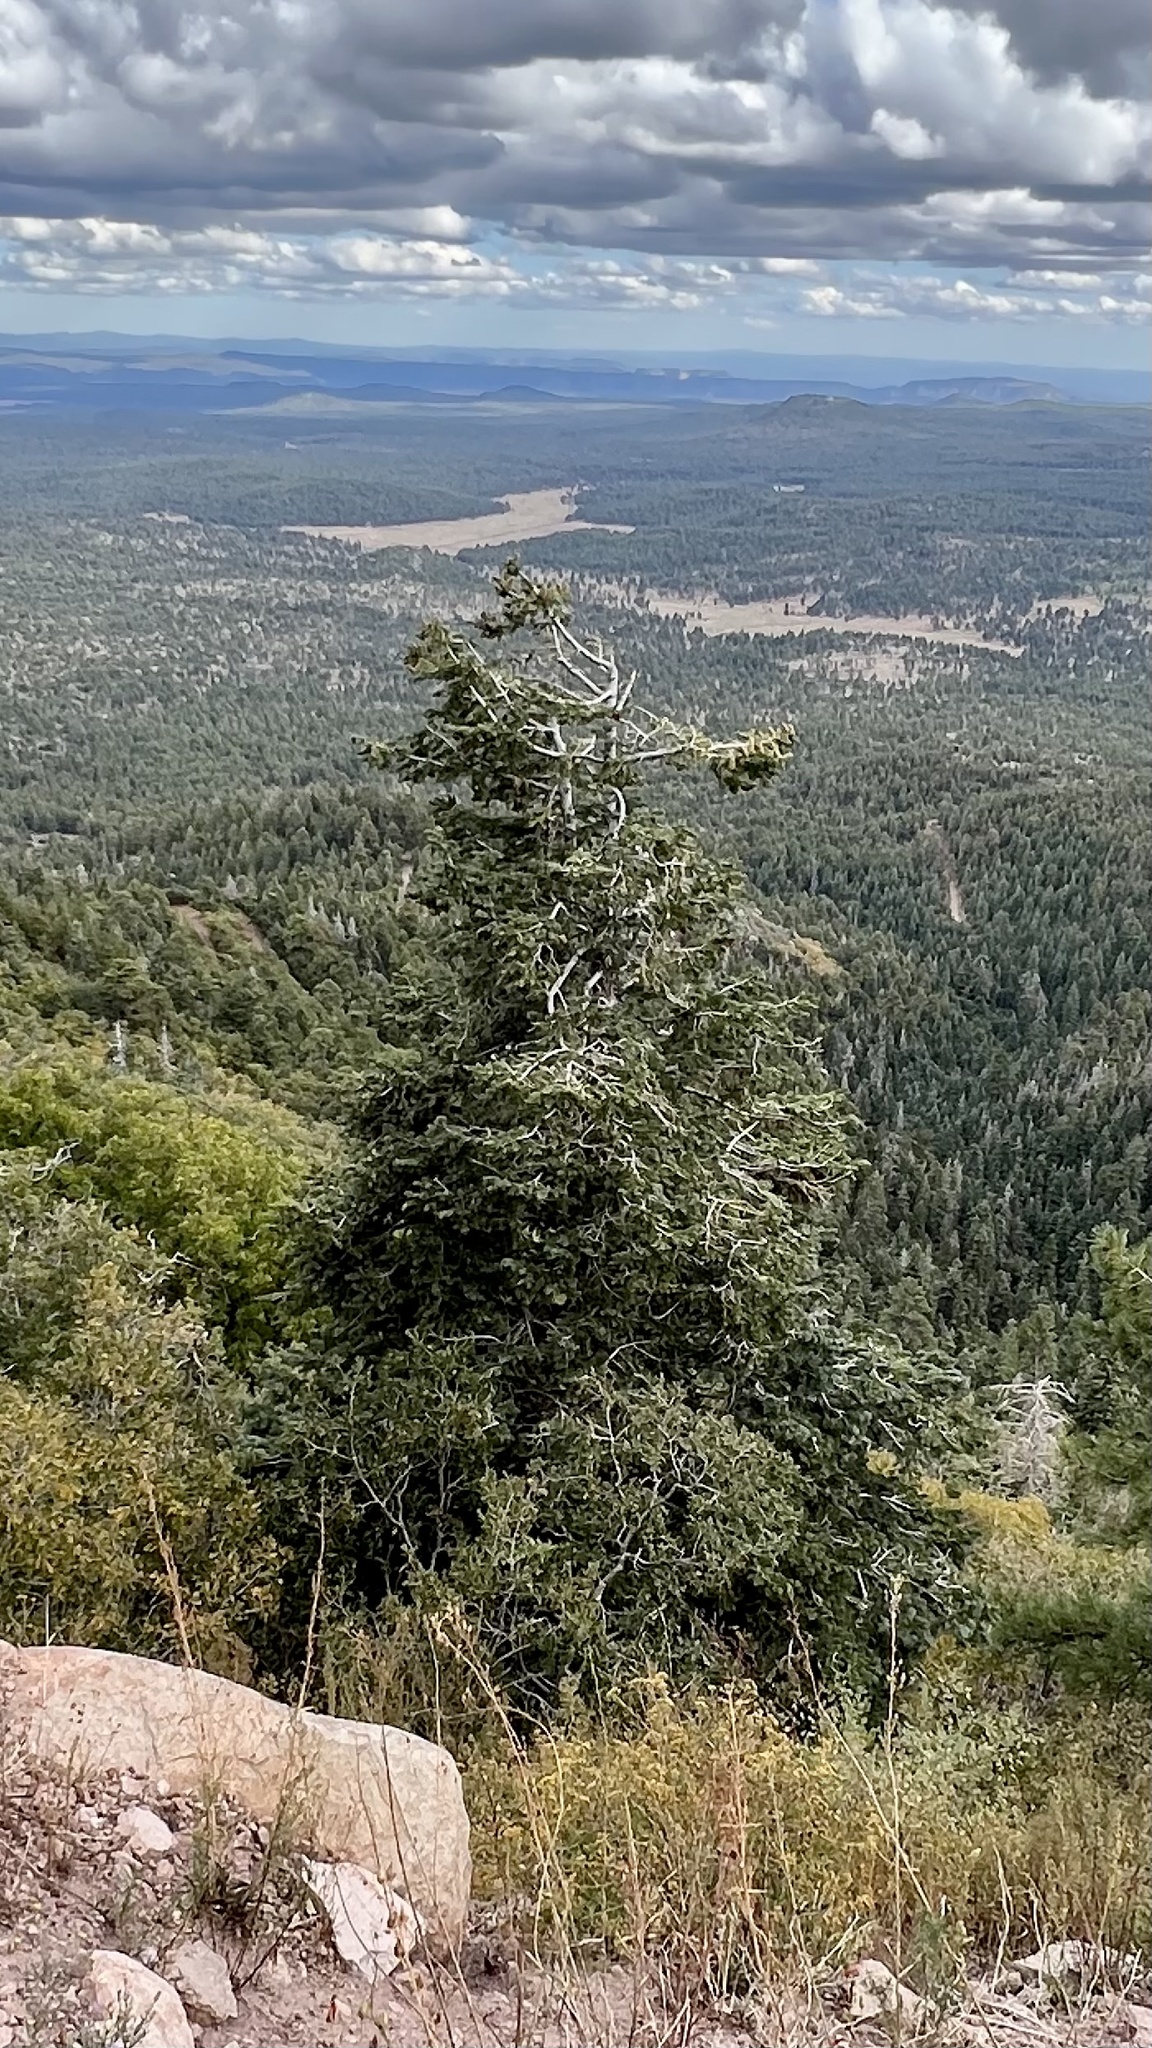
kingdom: Plantae
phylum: Tracheophyta
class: Pinopsida
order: Pinales
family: Pinaceae
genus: Abies
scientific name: Abies concolor
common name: Colorado fir
